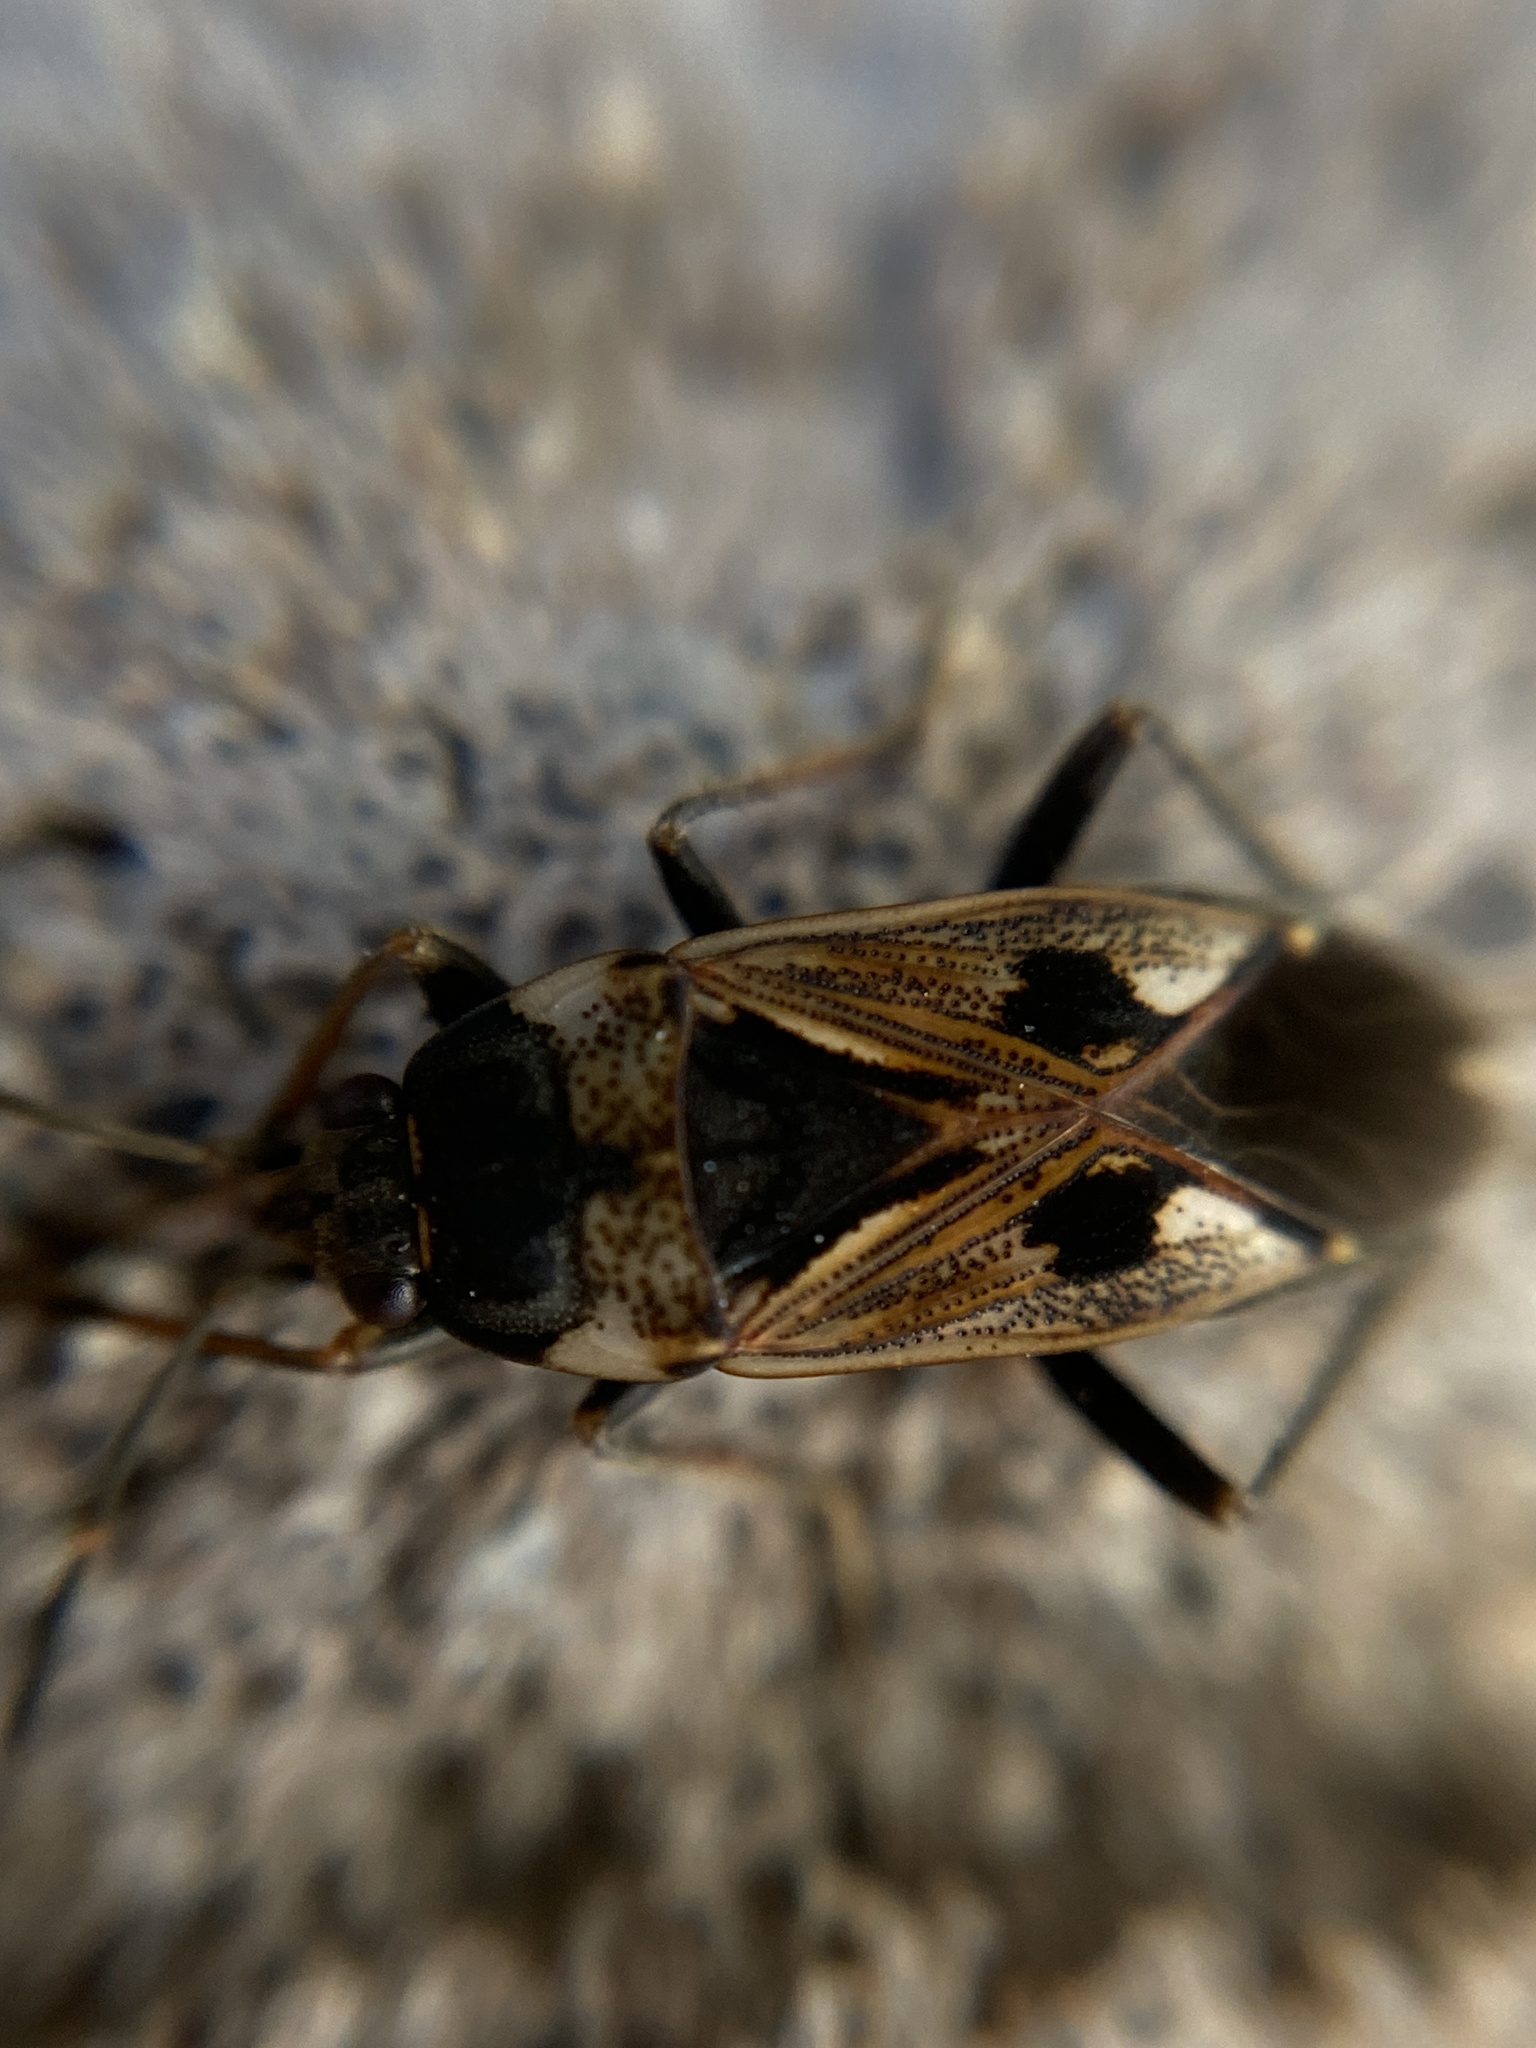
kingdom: Animalia
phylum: Arthropoda
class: Insecta
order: Hemiptera
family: Rhyparochromidae
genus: Rhyparochromus
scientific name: Rhyparochromus vulgaris
